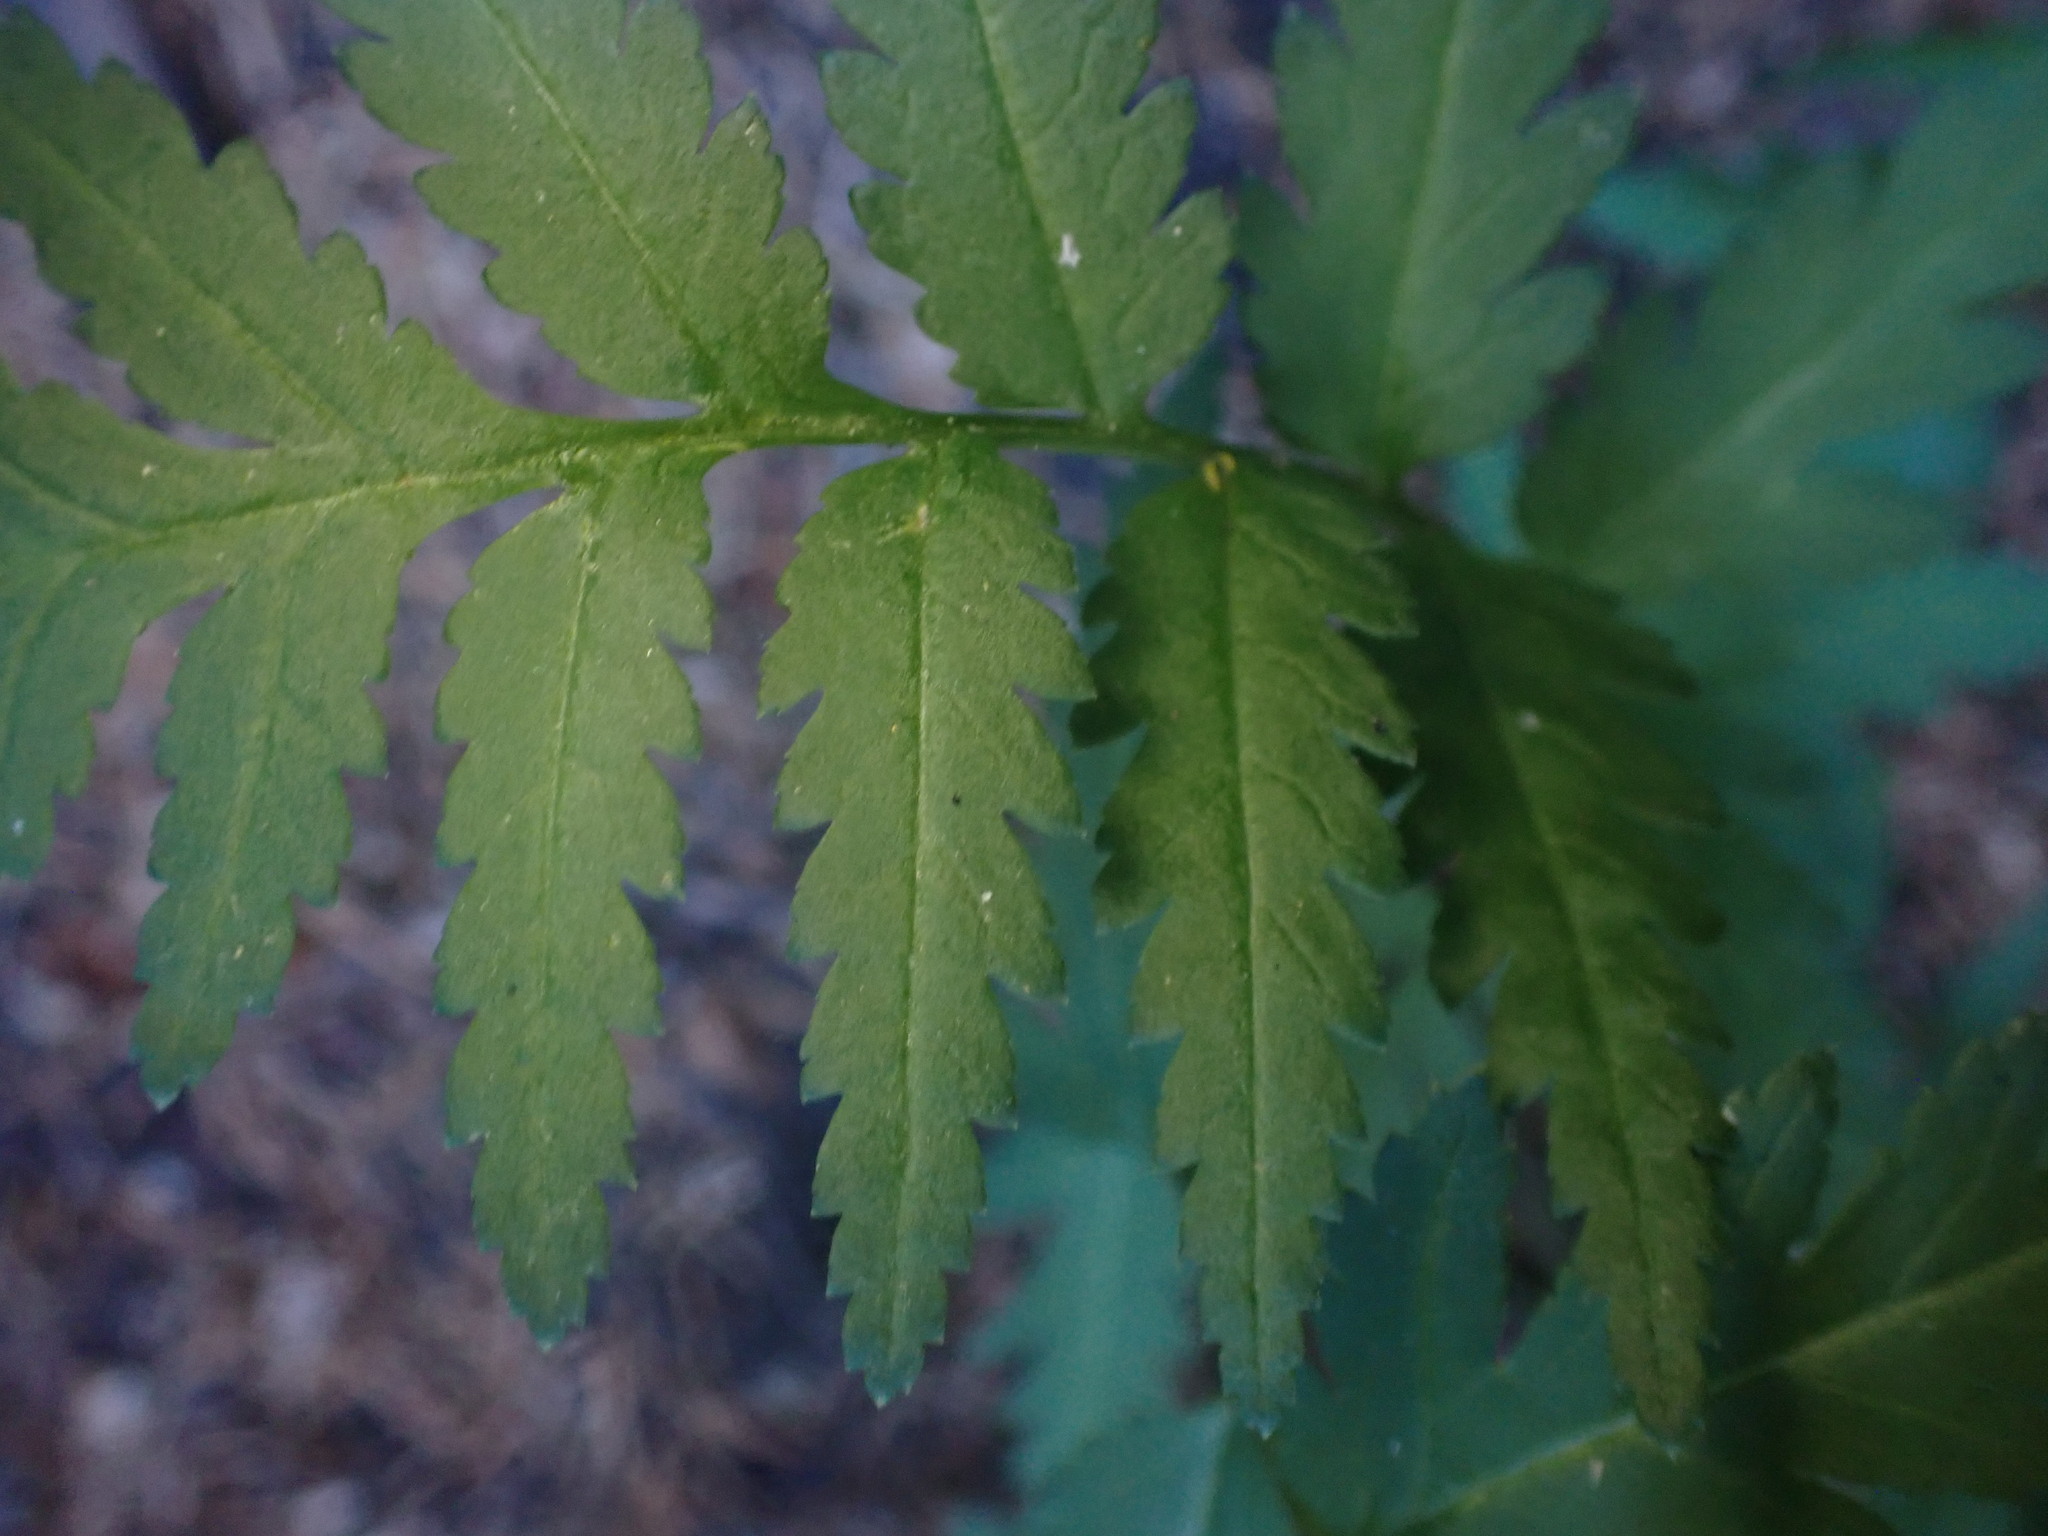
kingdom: Plantae
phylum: Tracheophyta
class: Magnoliopsida
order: Lamiales
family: Orobanchaceae
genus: Pedicularis
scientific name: Pedicularis bracteosa
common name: Bracted lousewort
